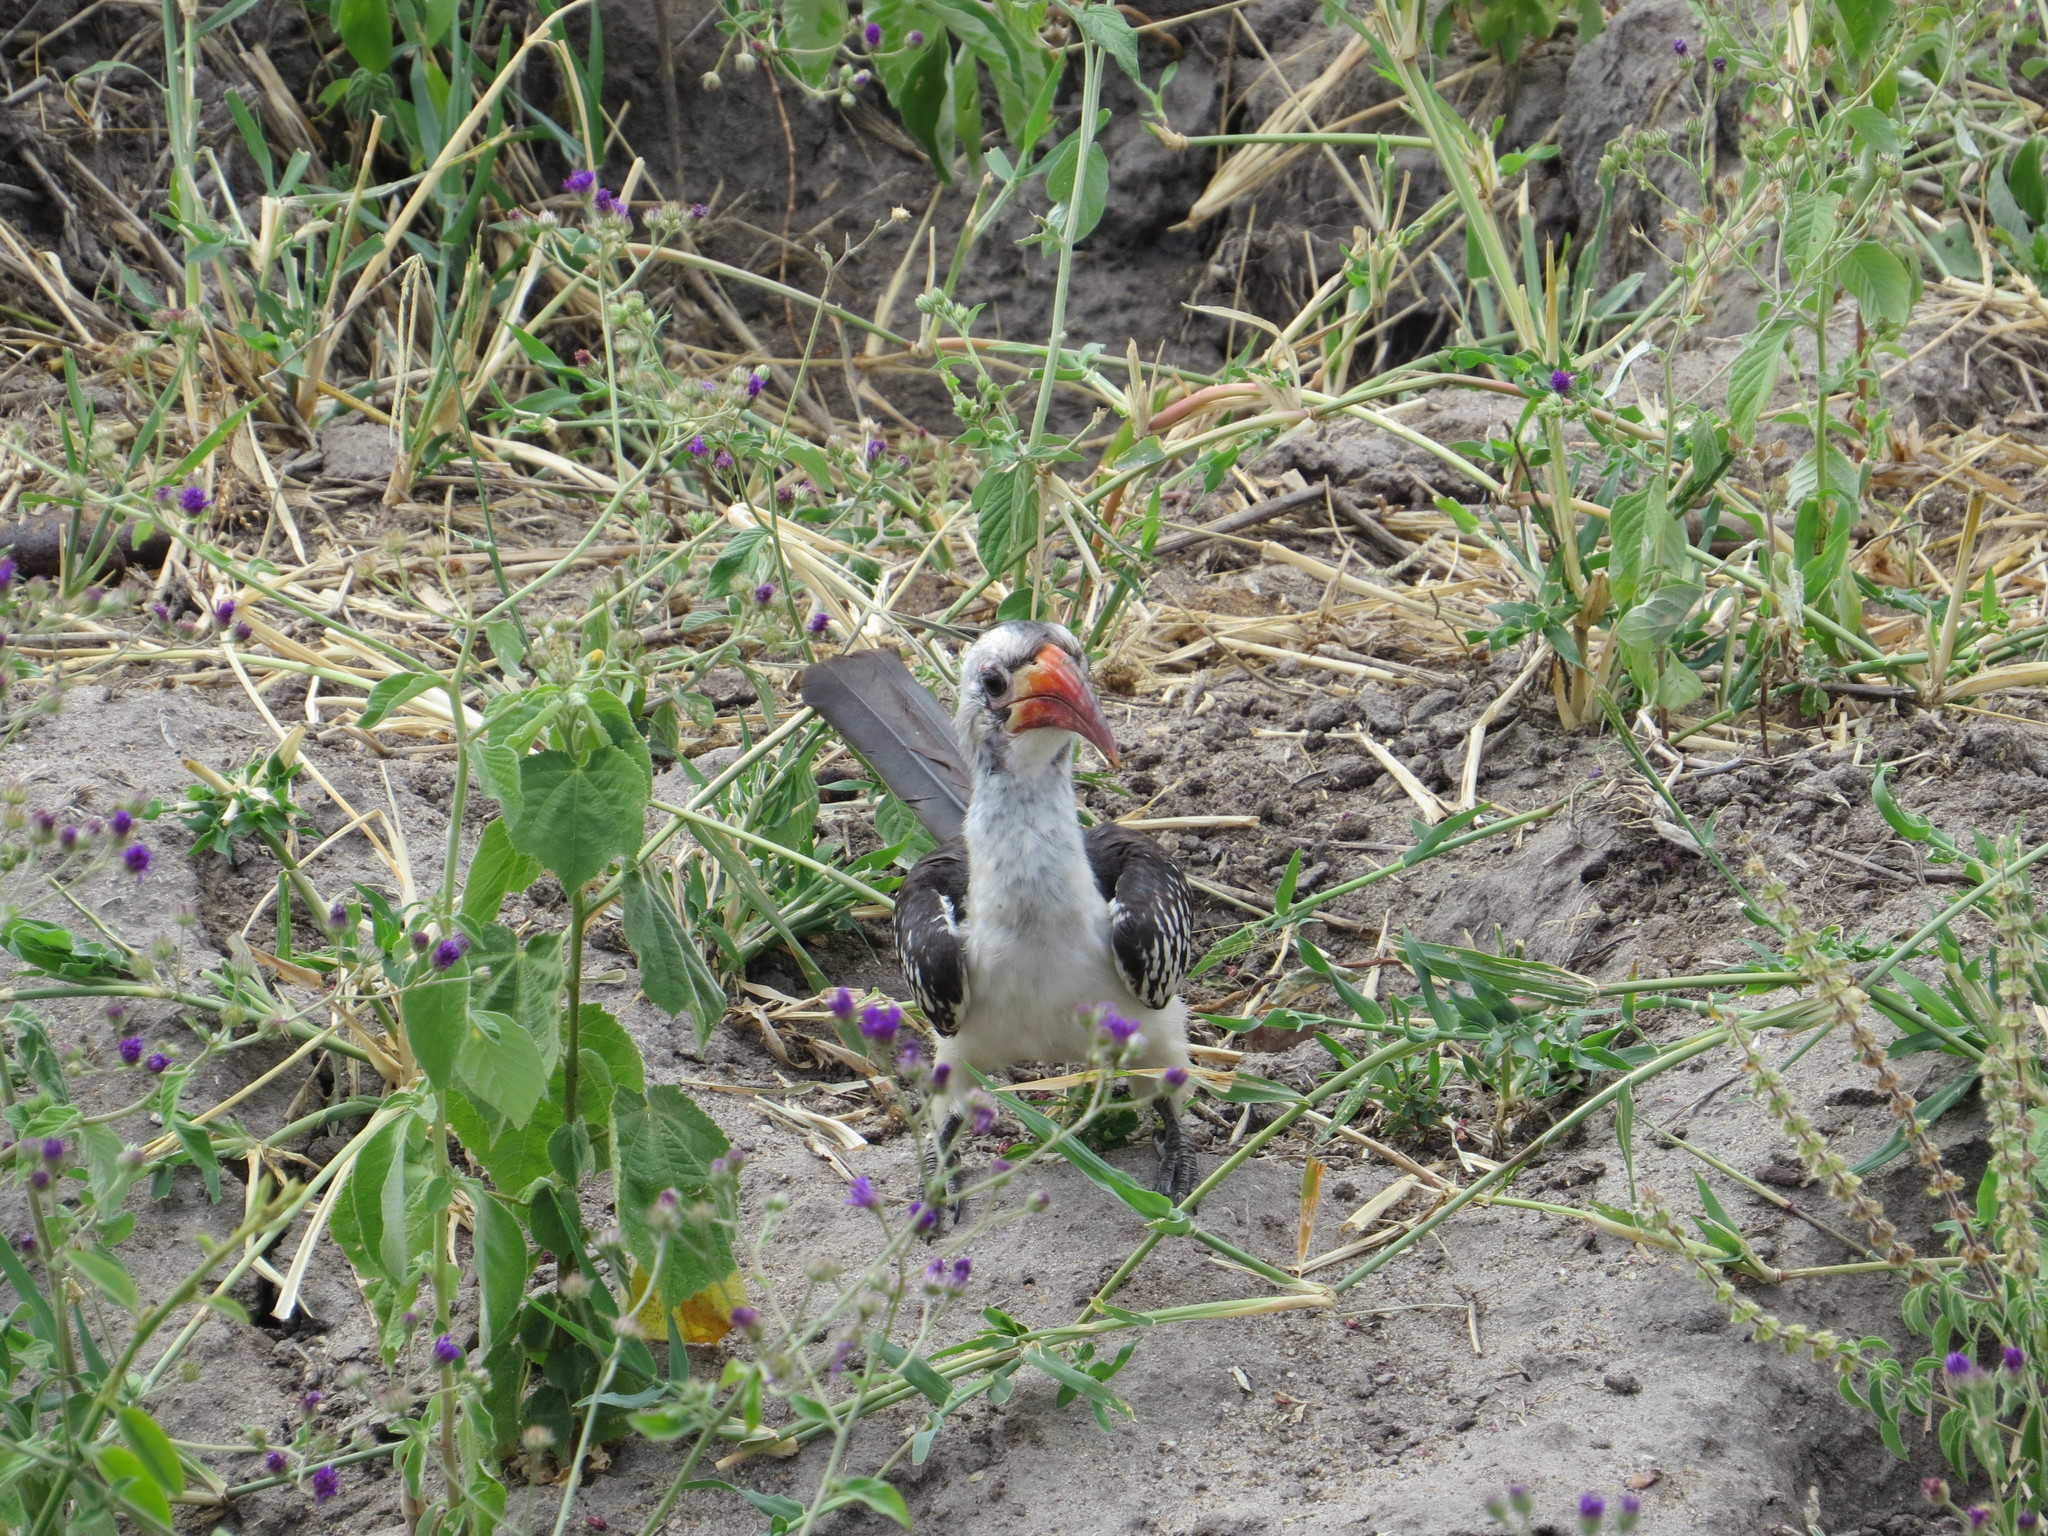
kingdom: Animalia
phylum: Chordata
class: Aves
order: Bucerotiformes
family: Bucerotidae
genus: Tockus
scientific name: Tockus erythrorhynchus
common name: Northern red-billed hornbill
